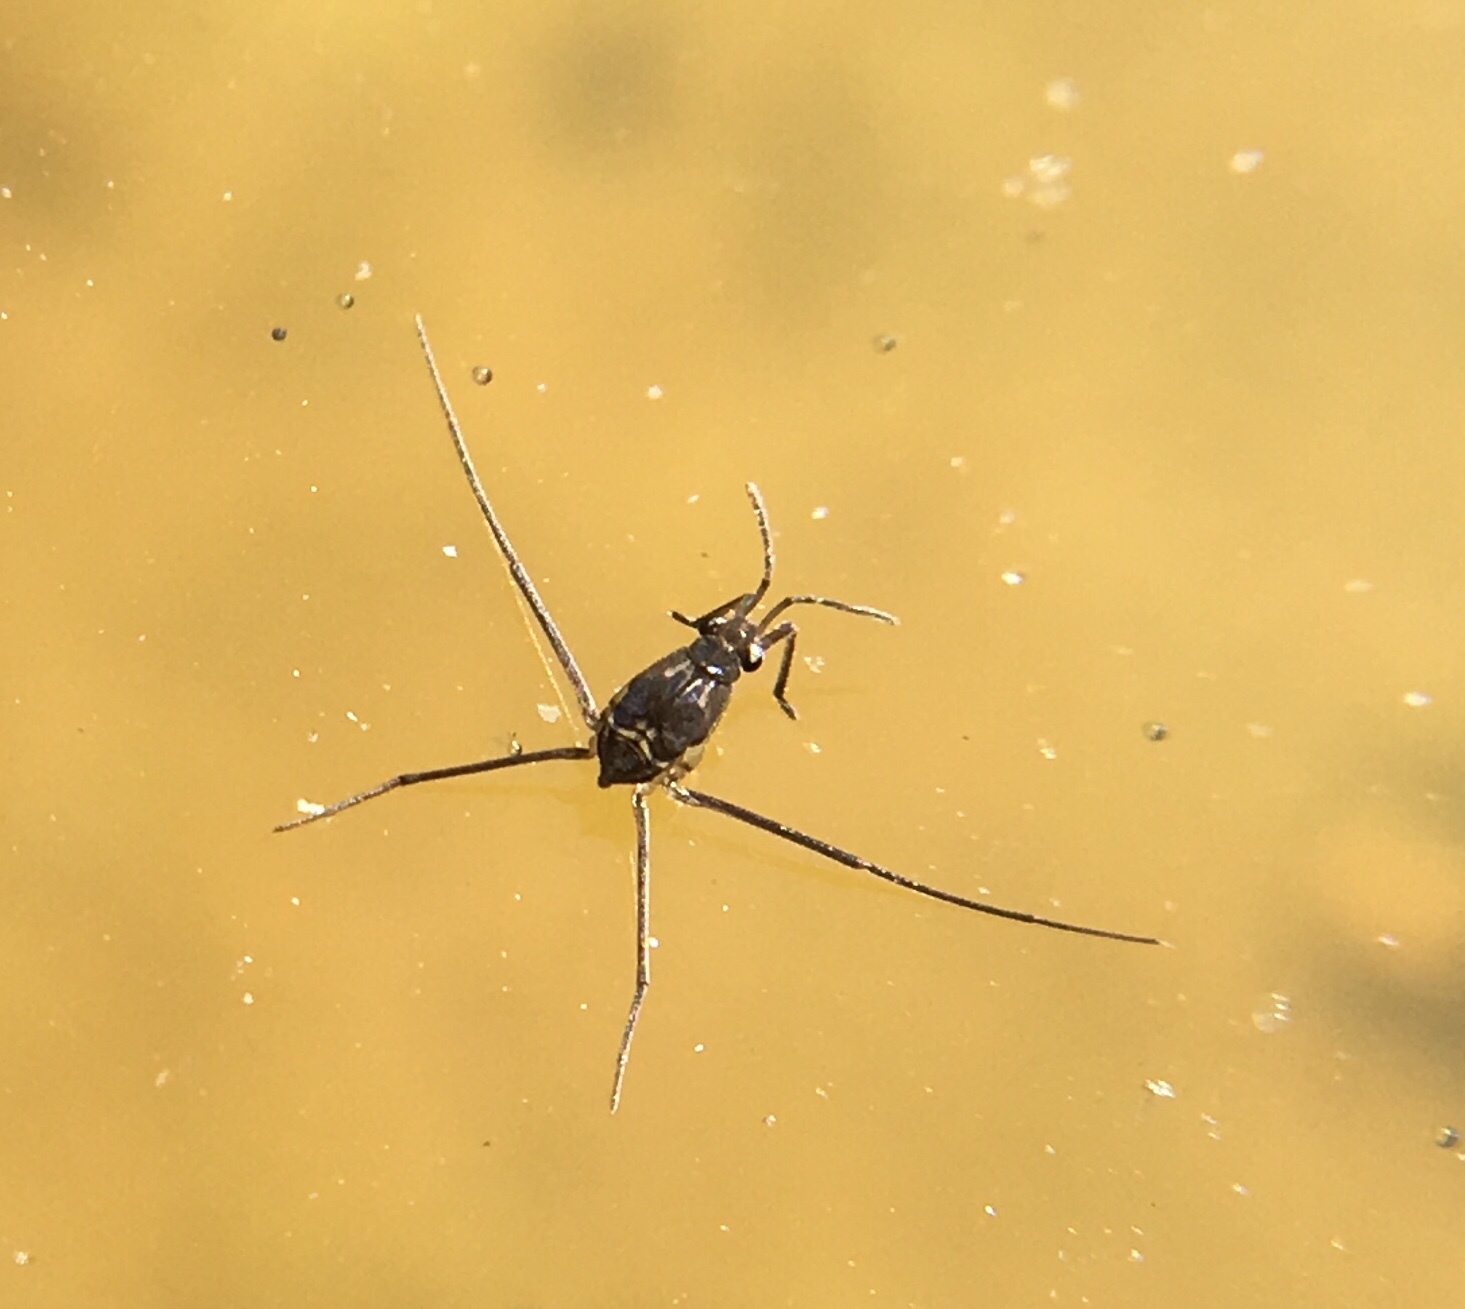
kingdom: Animalia
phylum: Arthropoda
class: Insecta
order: Hemiptera
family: Gerridae
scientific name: Gerridae
